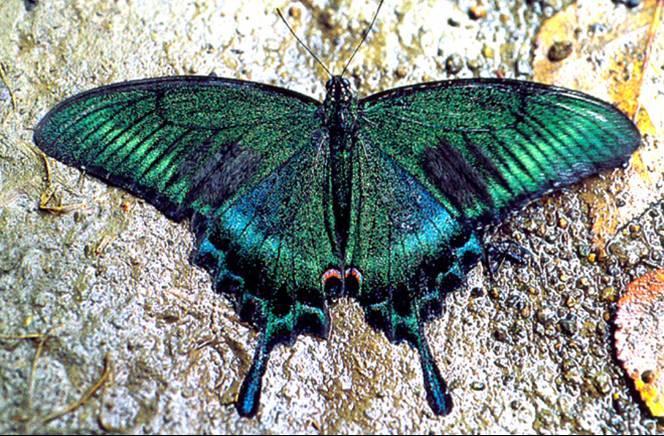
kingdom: Animalia
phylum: Arthropoda
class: Insecta
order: Lepidoptera
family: Papilionidae
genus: Papilio
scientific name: Papilio maackii
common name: Alpine black swallowtail
